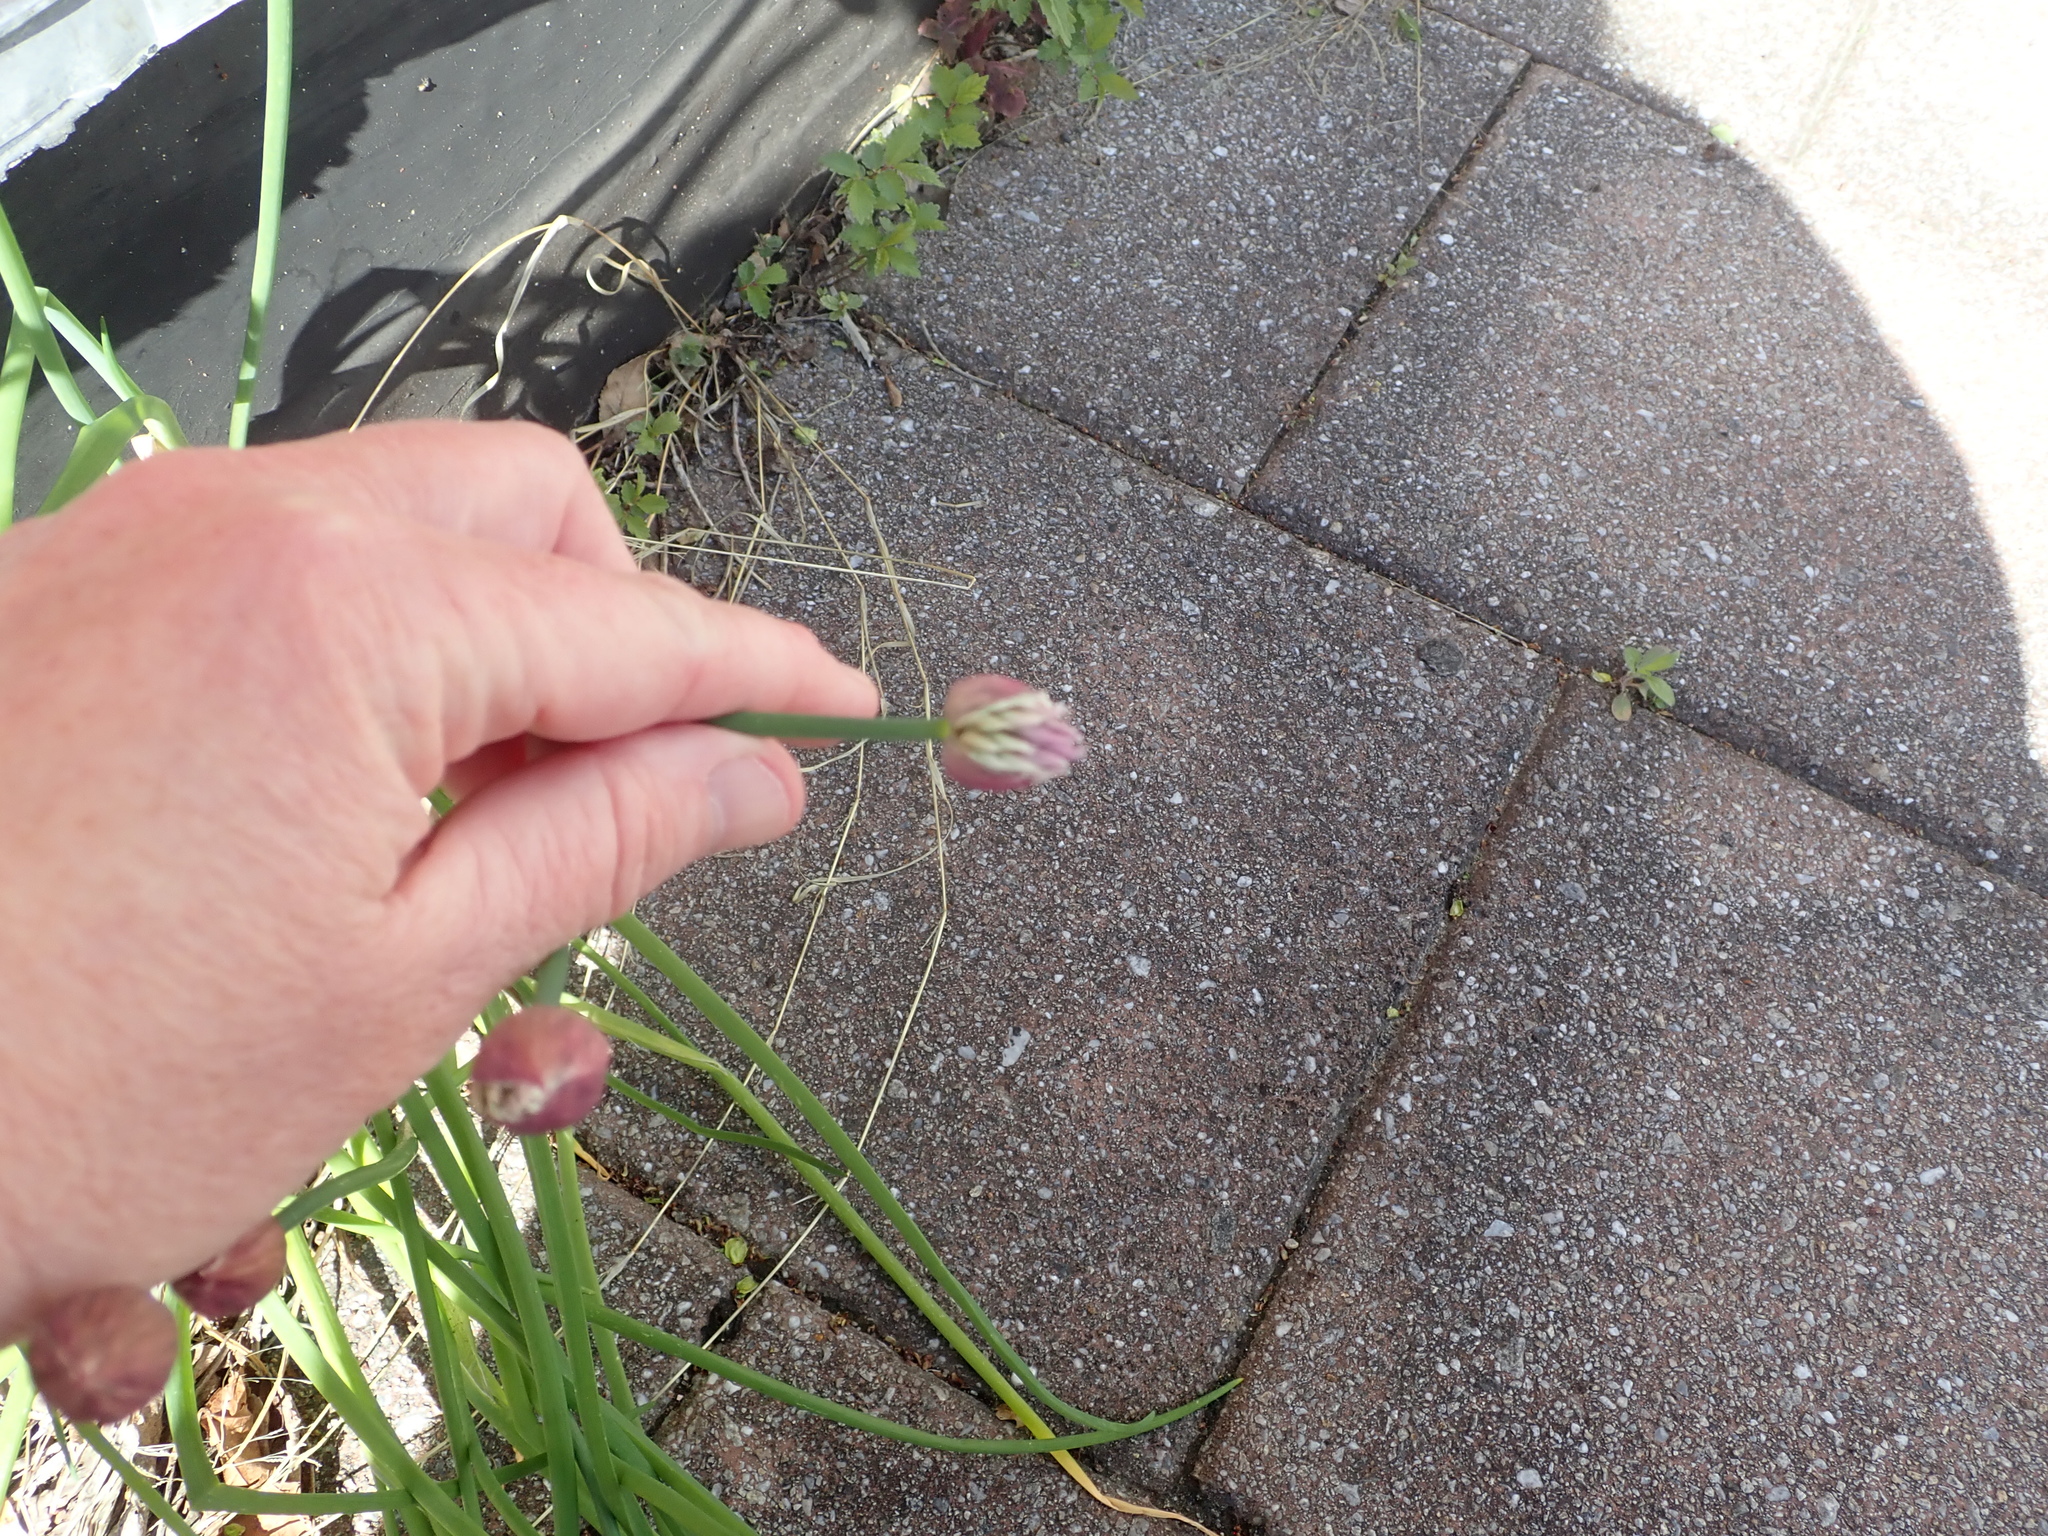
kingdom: Plantae
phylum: Tracheophyta
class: Liliopsida
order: Asparagales
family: Amaryllidaceae
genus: Allium
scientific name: Allium schoenoprasum
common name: Chives
